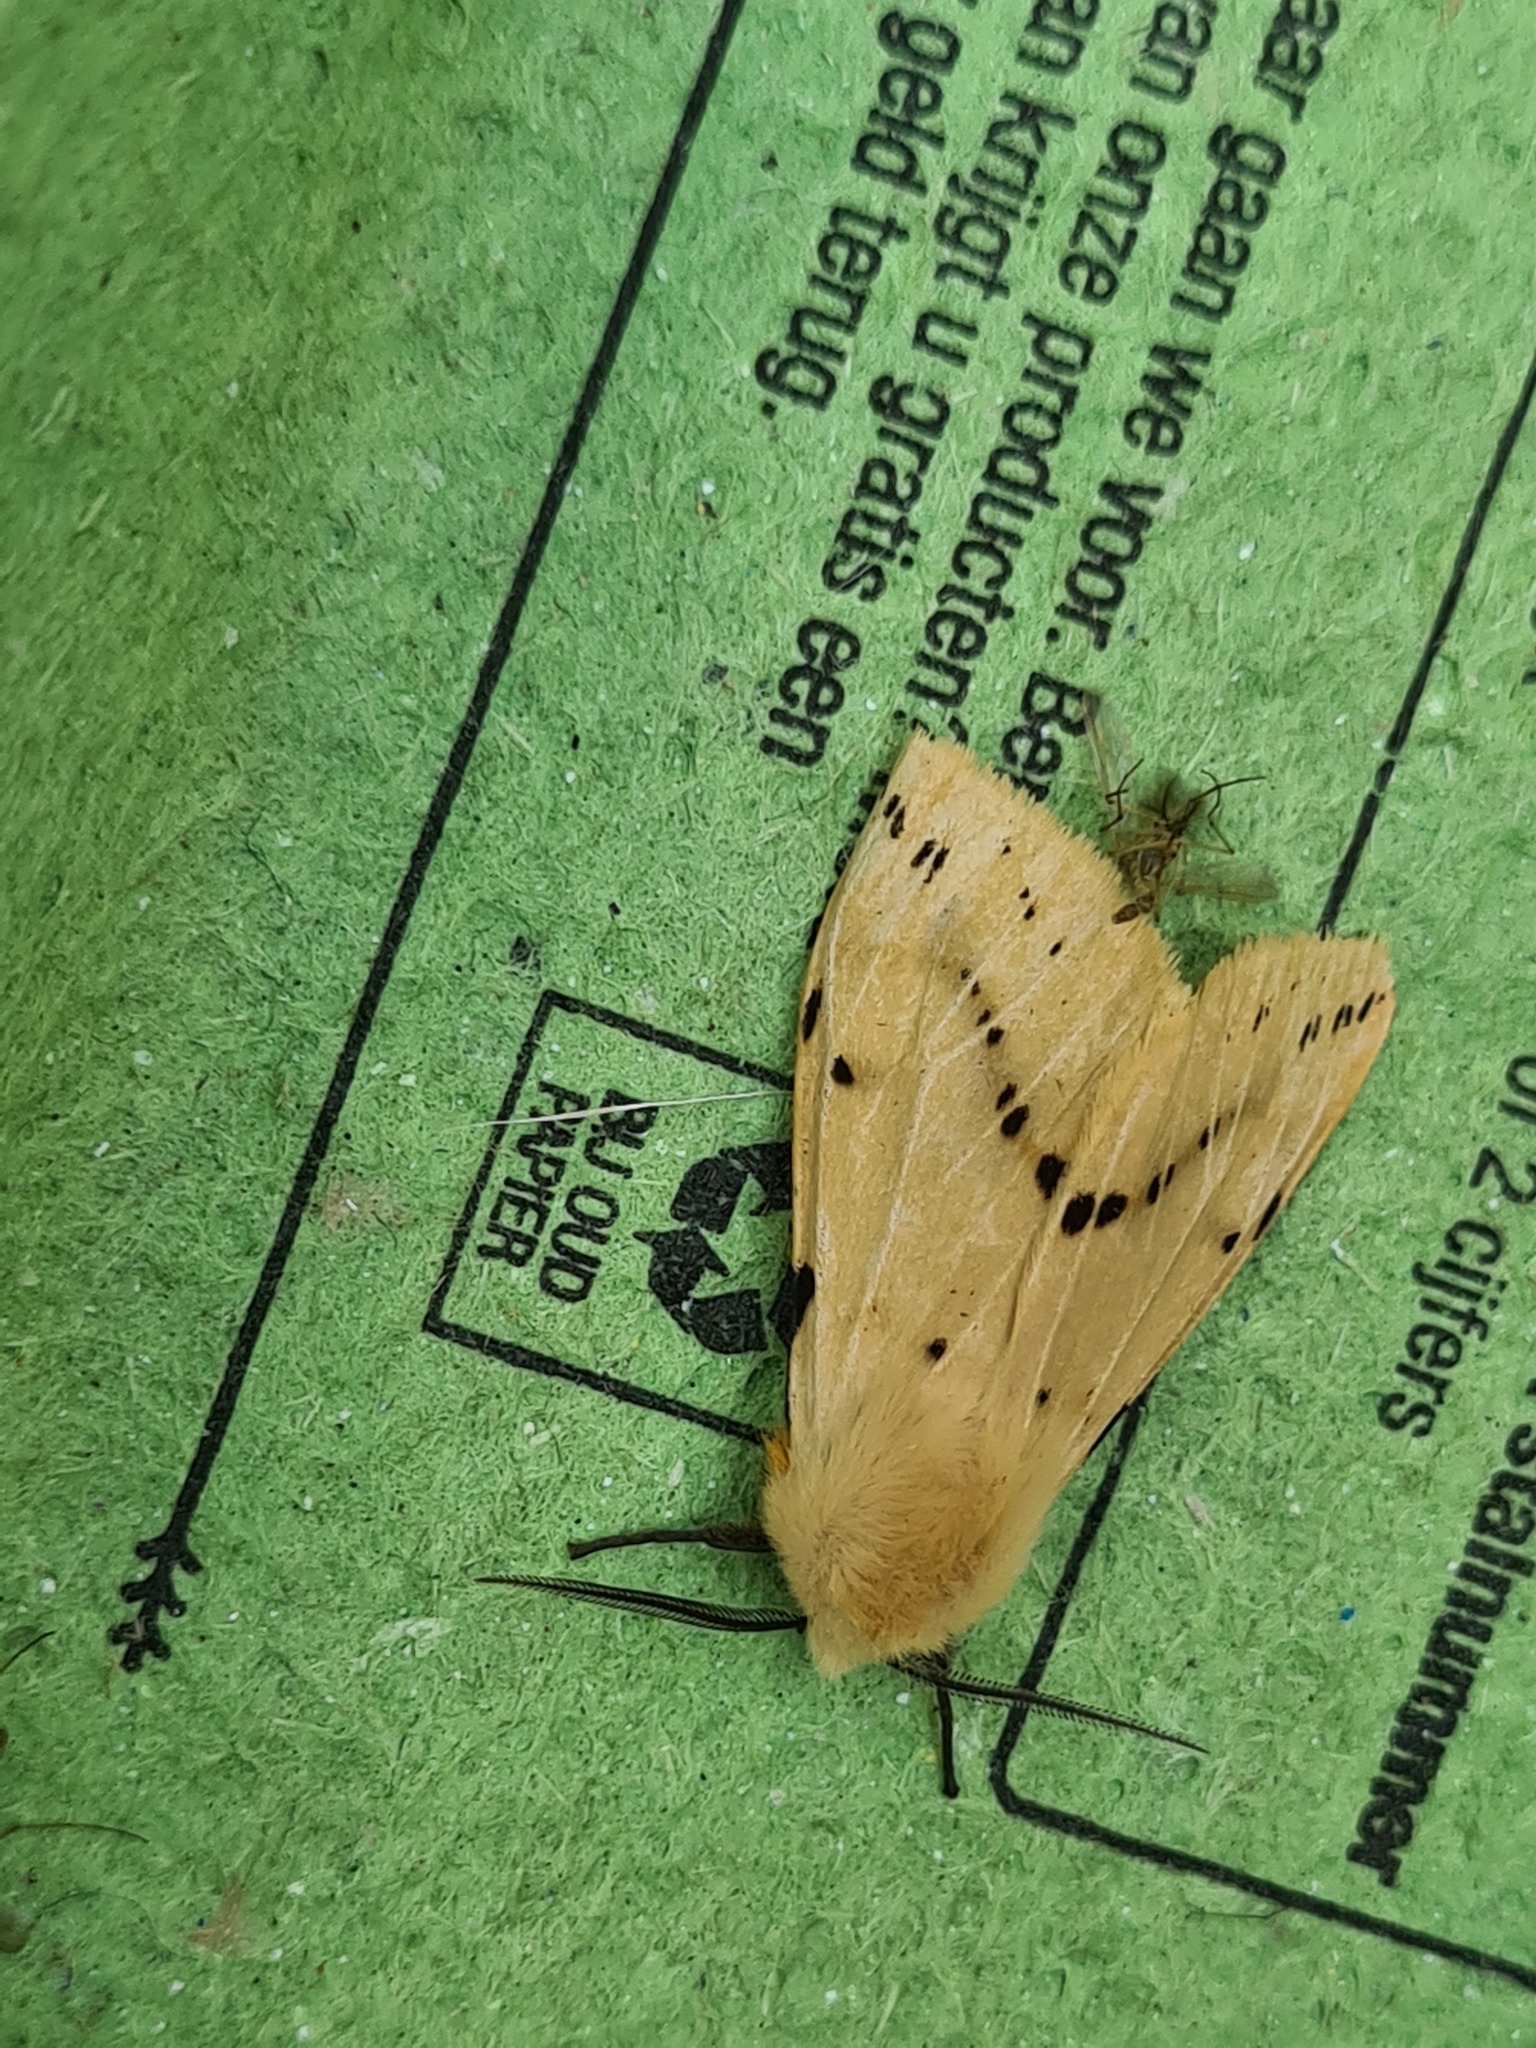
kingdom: Animalia
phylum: Arthropoda
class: Insecta
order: Lepidoptera
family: Erebidae
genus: Spilarctia
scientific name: Spilarctia lutea
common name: Buff ermine
